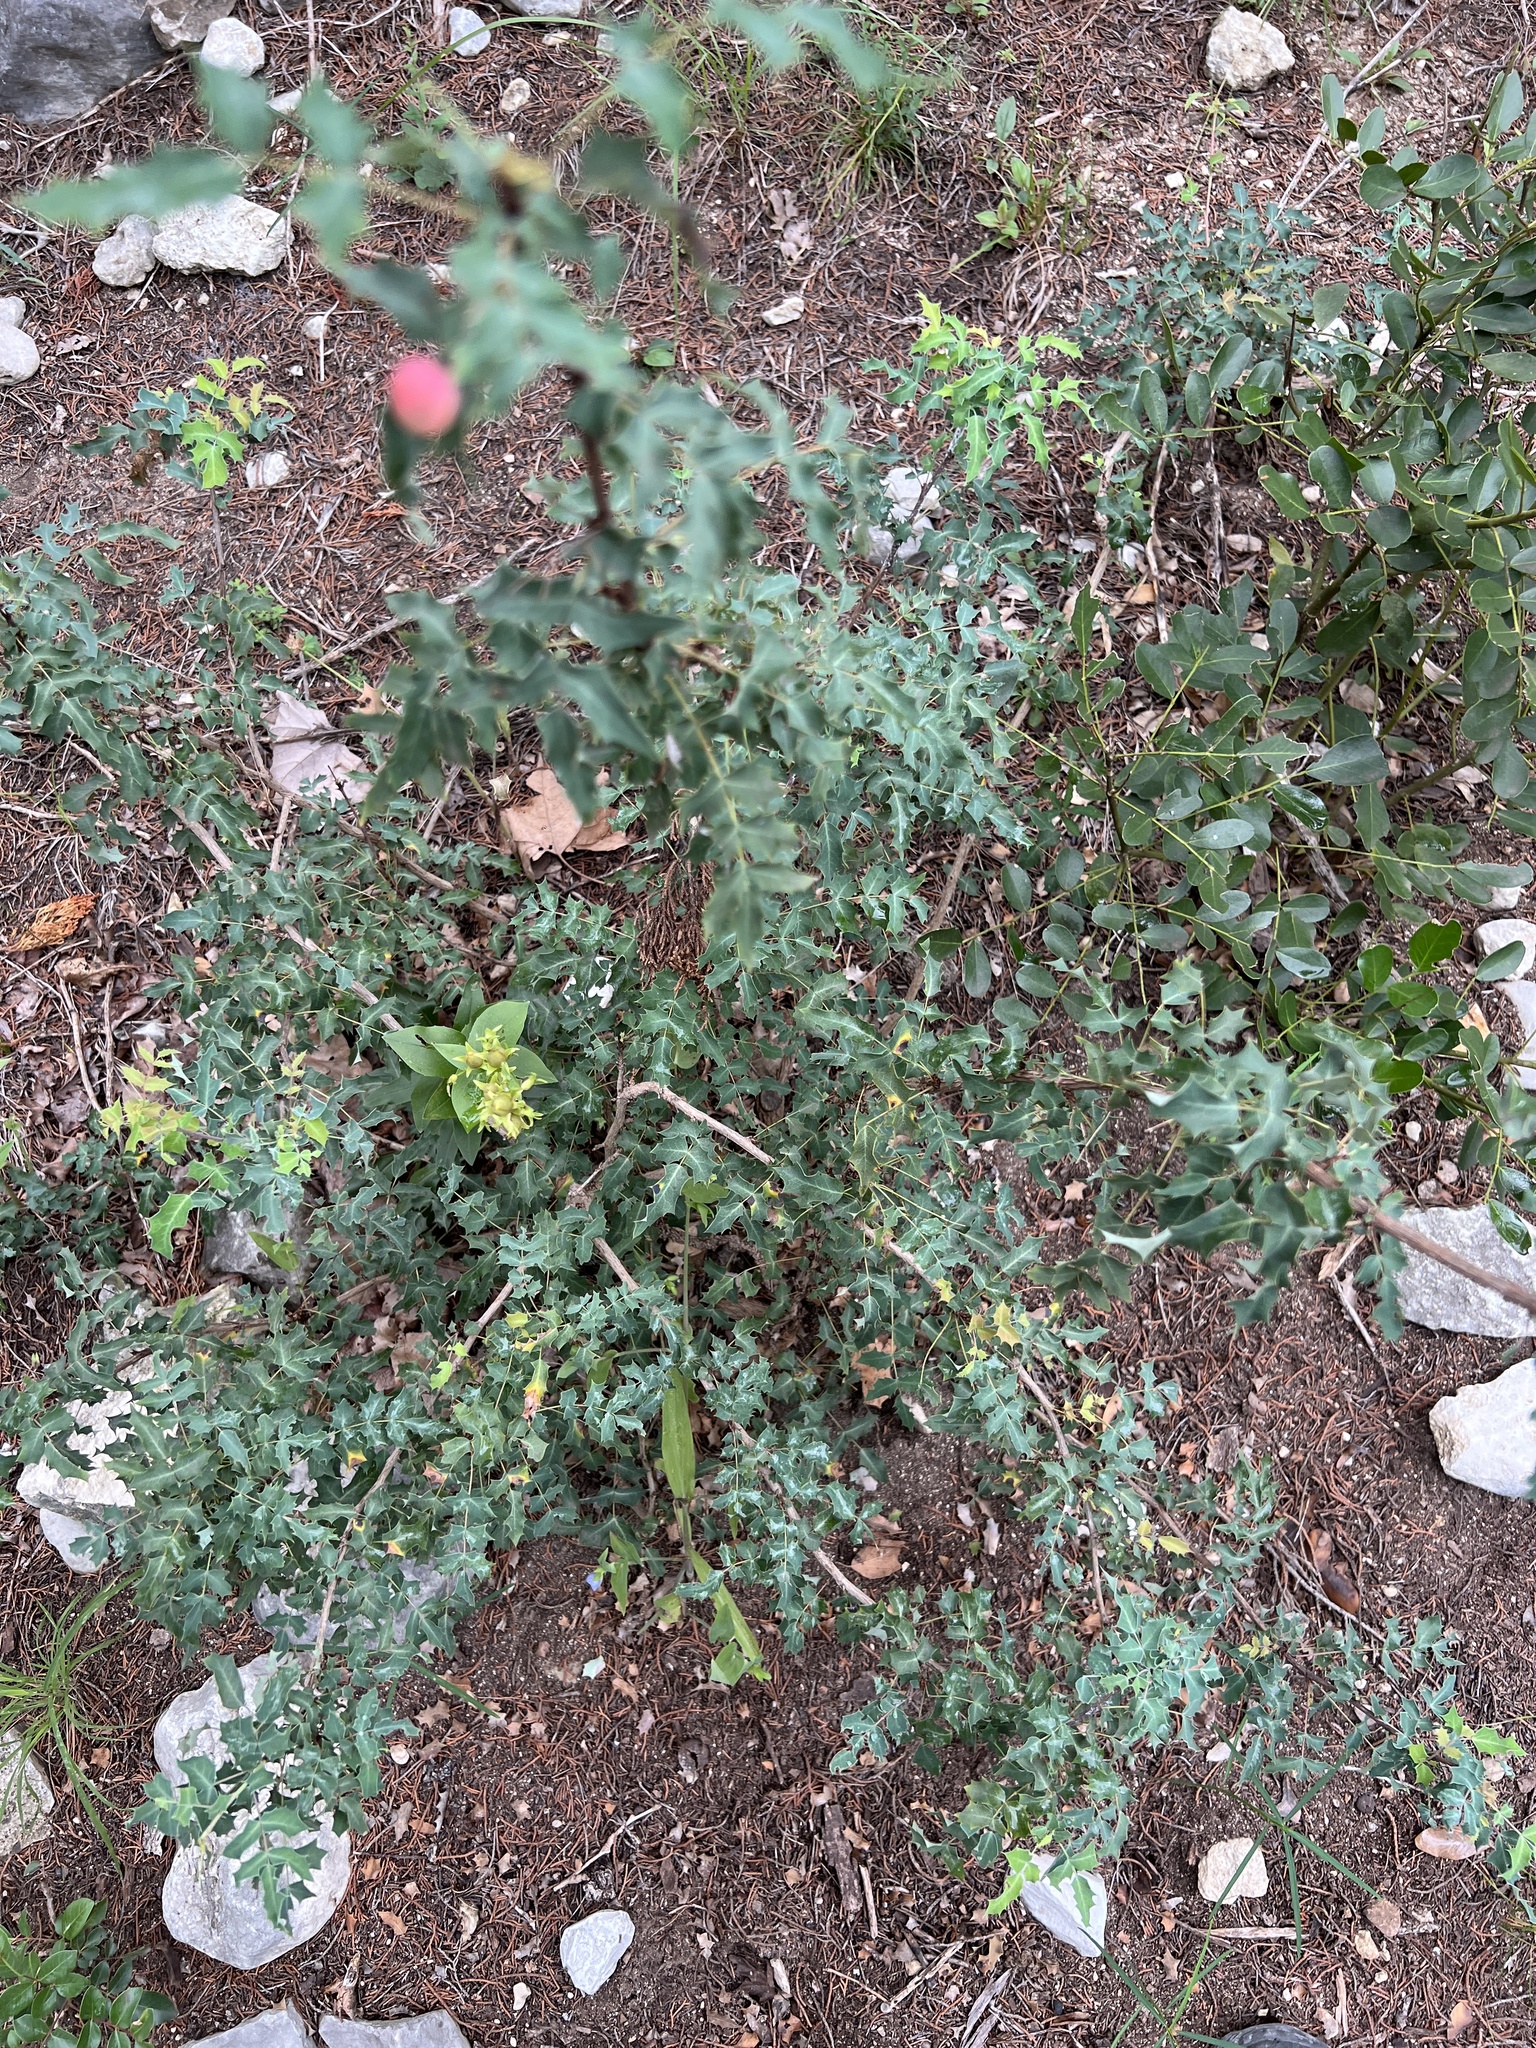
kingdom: Plantae
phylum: Tracheophyta
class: Magnoliopsida
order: Ranunculales
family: Berberidaceae
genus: Berberis
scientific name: Berberis swaseyi
